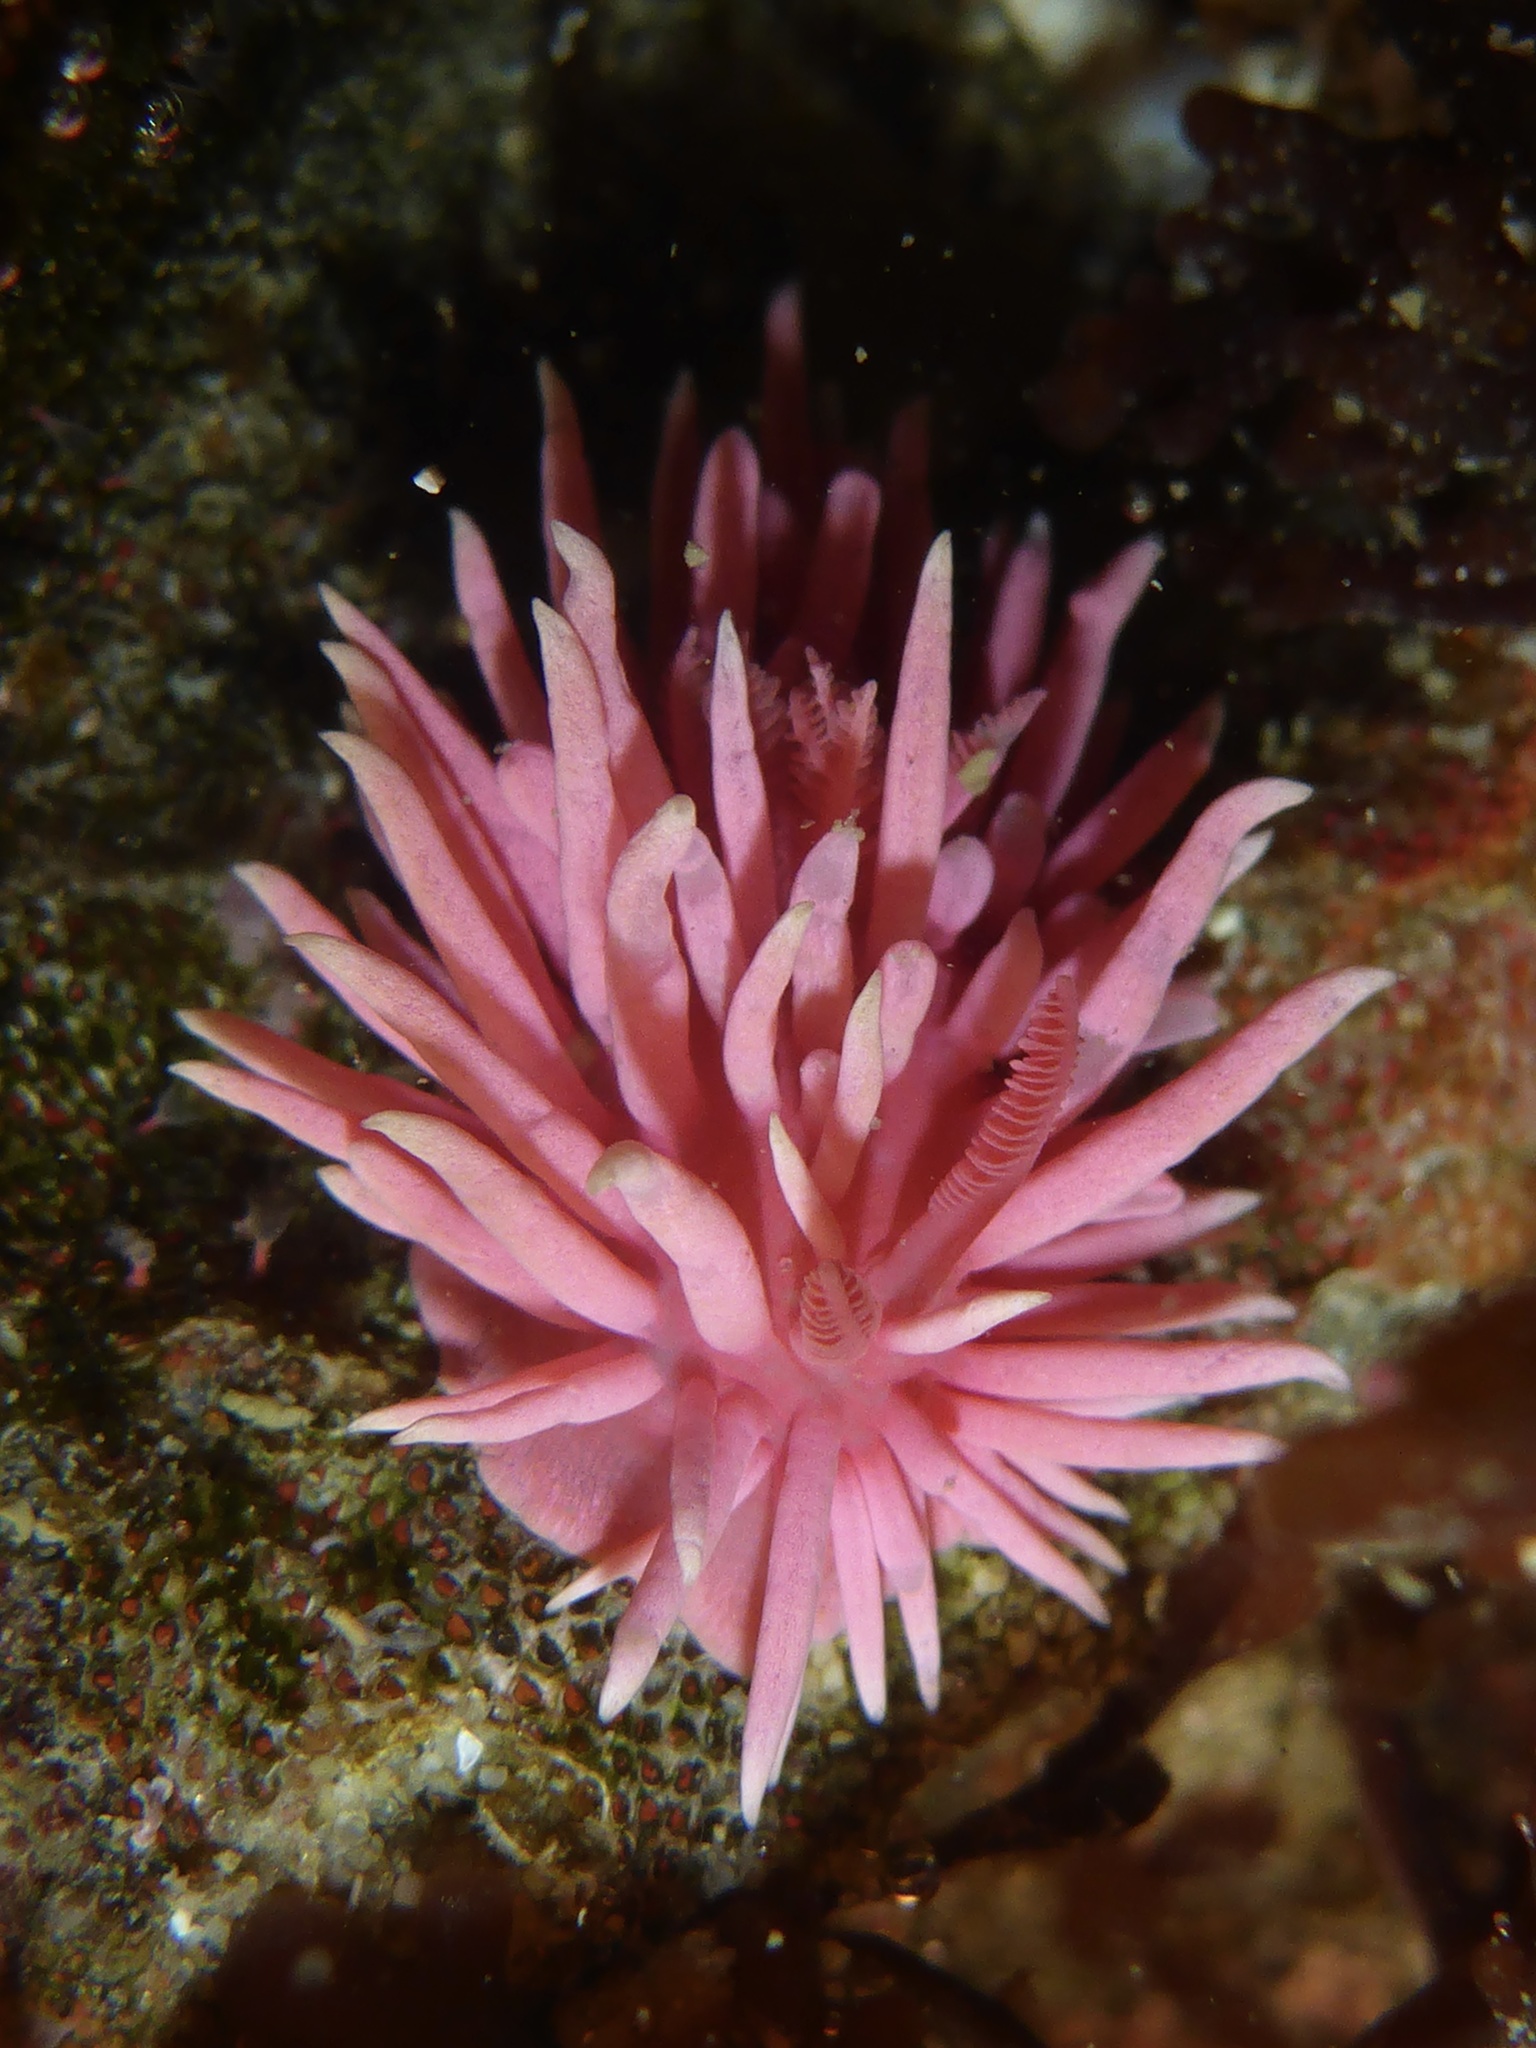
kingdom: Animalia
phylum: Mollusca
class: Gastropoda
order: Nudibranchia
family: Goniodorididae
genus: Okenia
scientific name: Okenia
